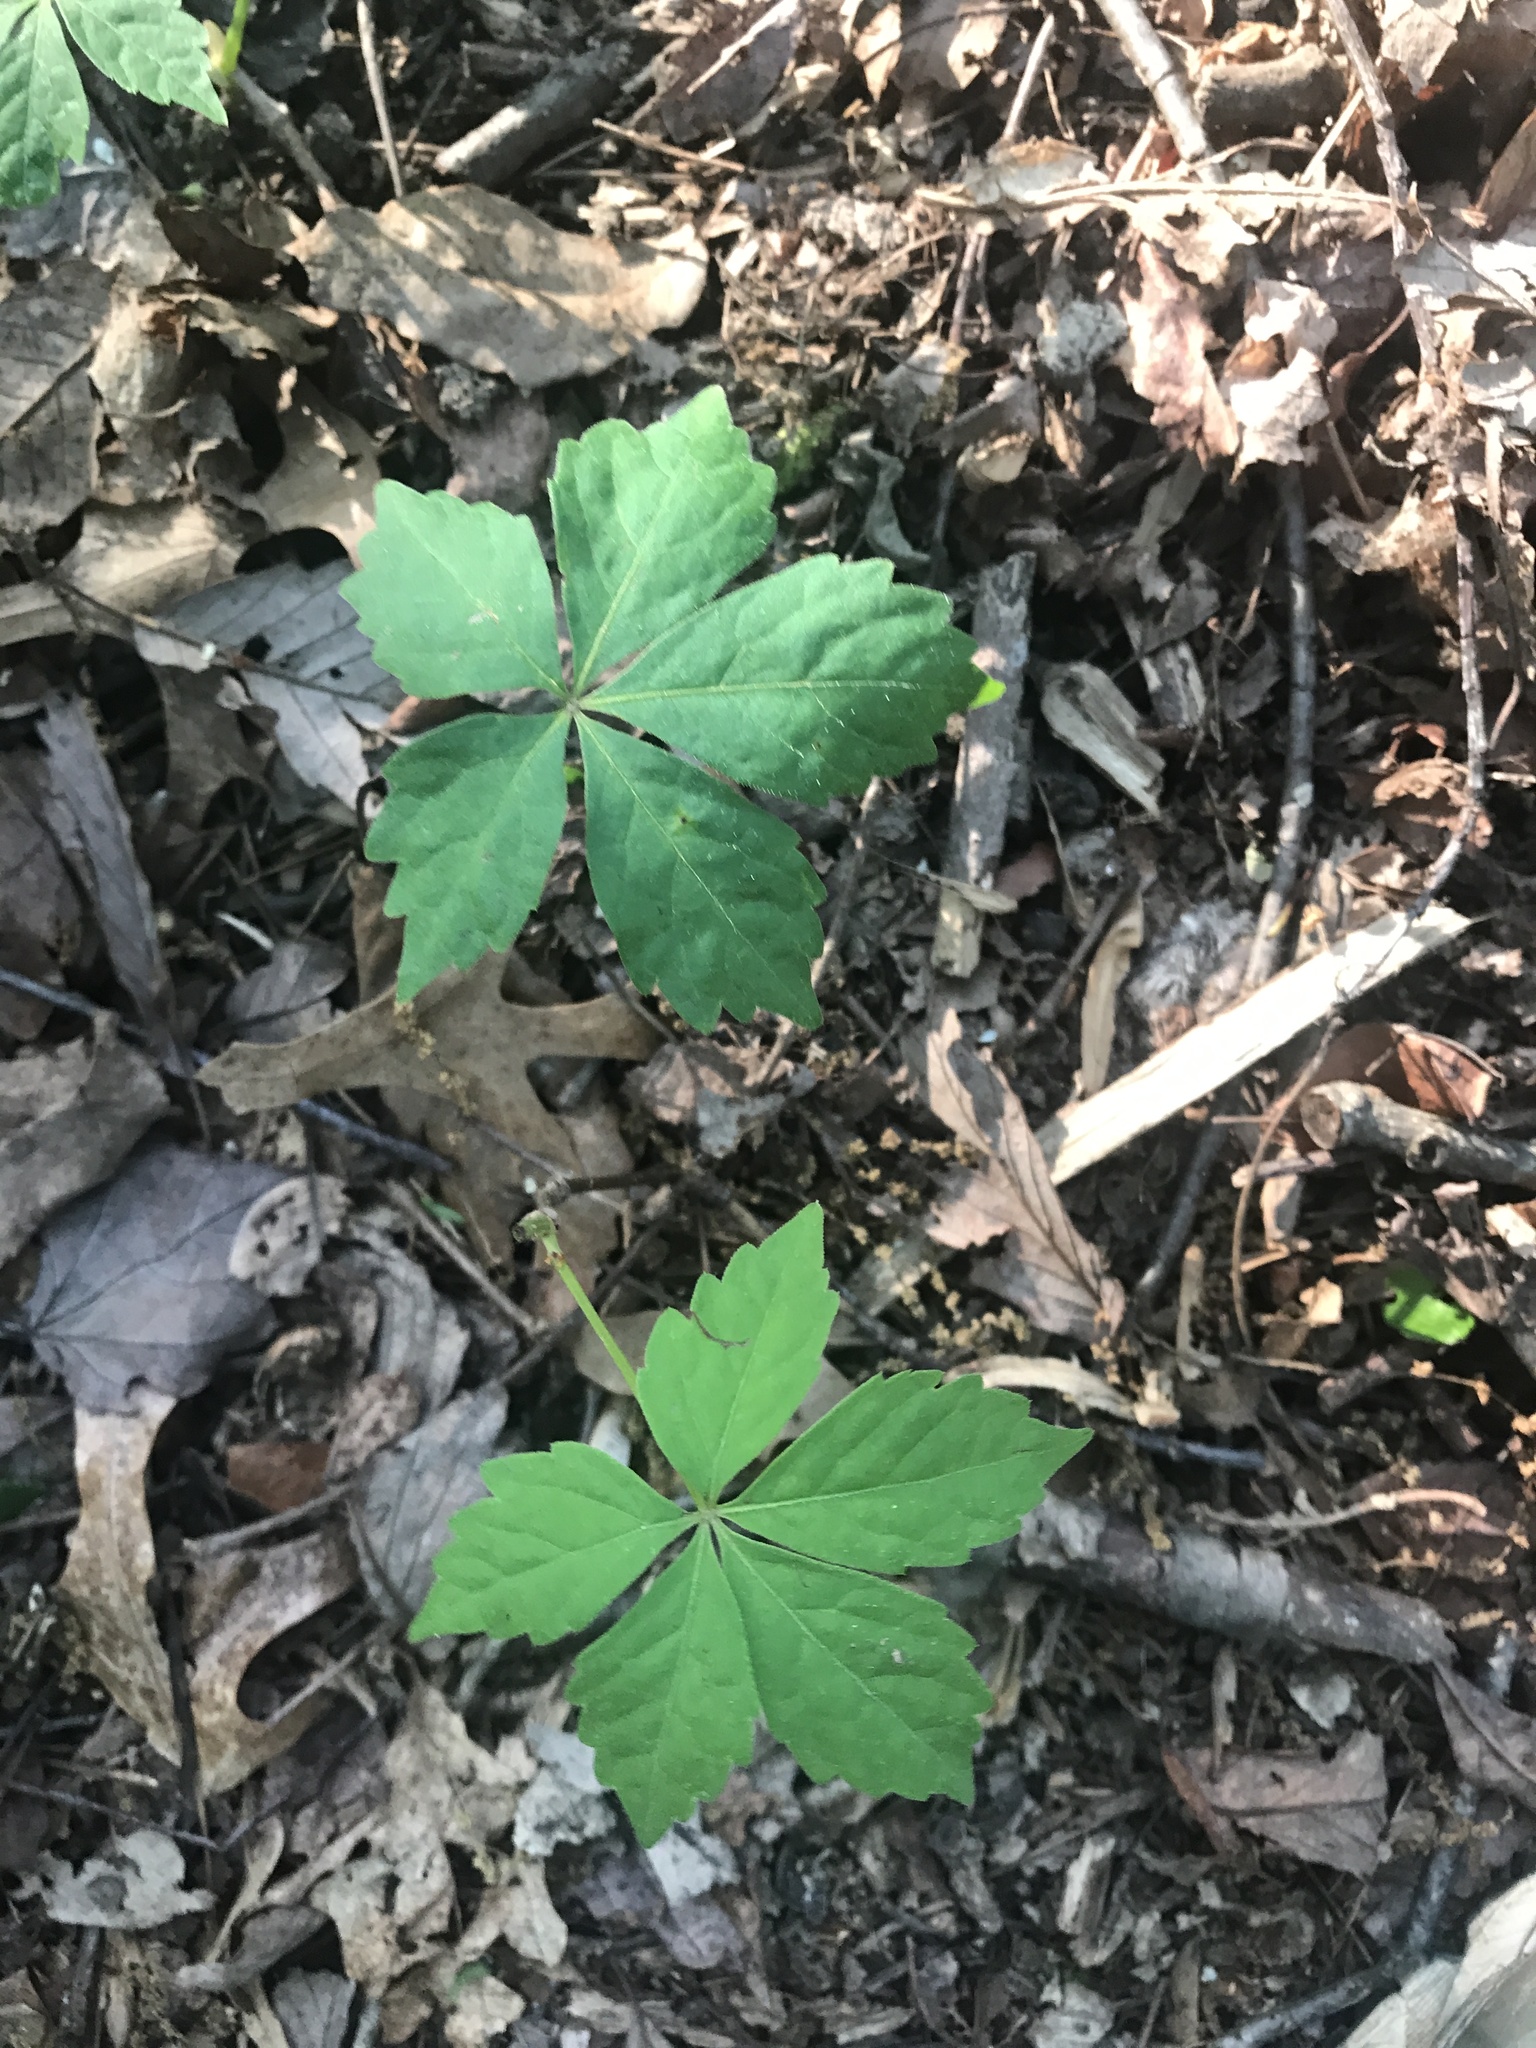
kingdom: Plantae
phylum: Tracheophyta
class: Magnoliopsida
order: Vitales
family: Vitaceae
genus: Parthenocissus
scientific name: Parthenocissus quinquefolia
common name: Virginia-creeper
